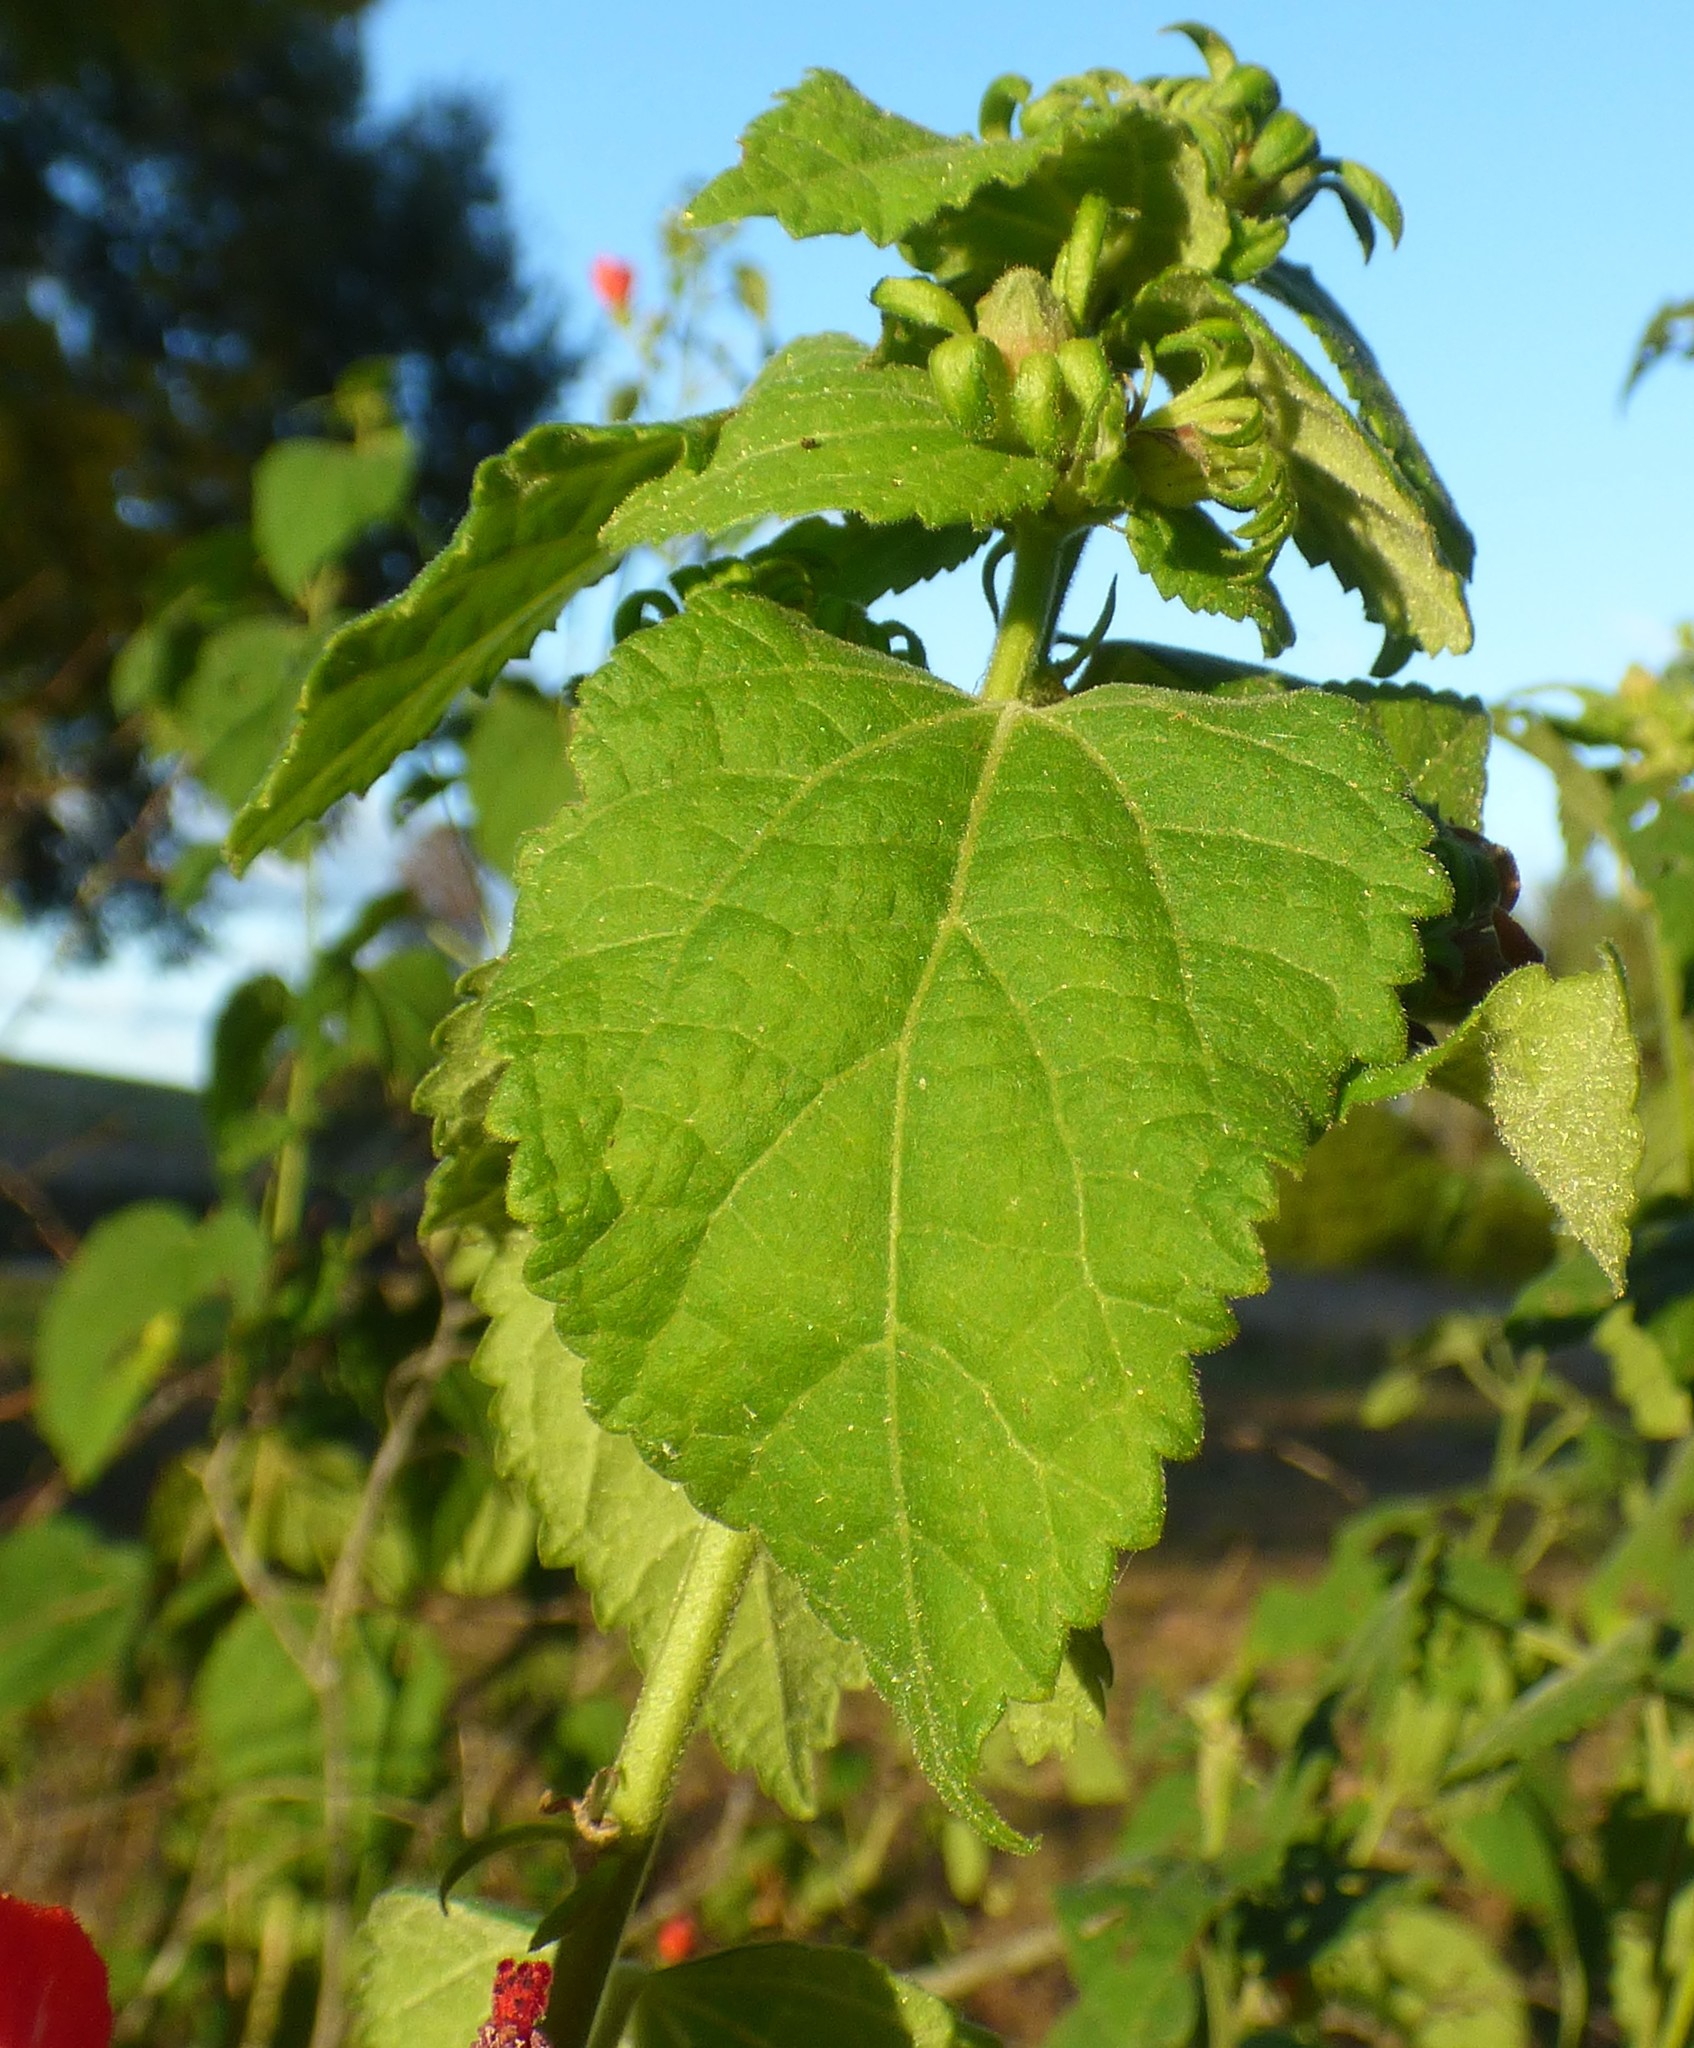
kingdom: Plantae
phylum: Tracheophyta
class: Magnoliopsida
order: Malvales
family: Malvaceae
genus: Malvaviscus
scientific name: Malvaviscus arboreus
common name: Wax mallow
